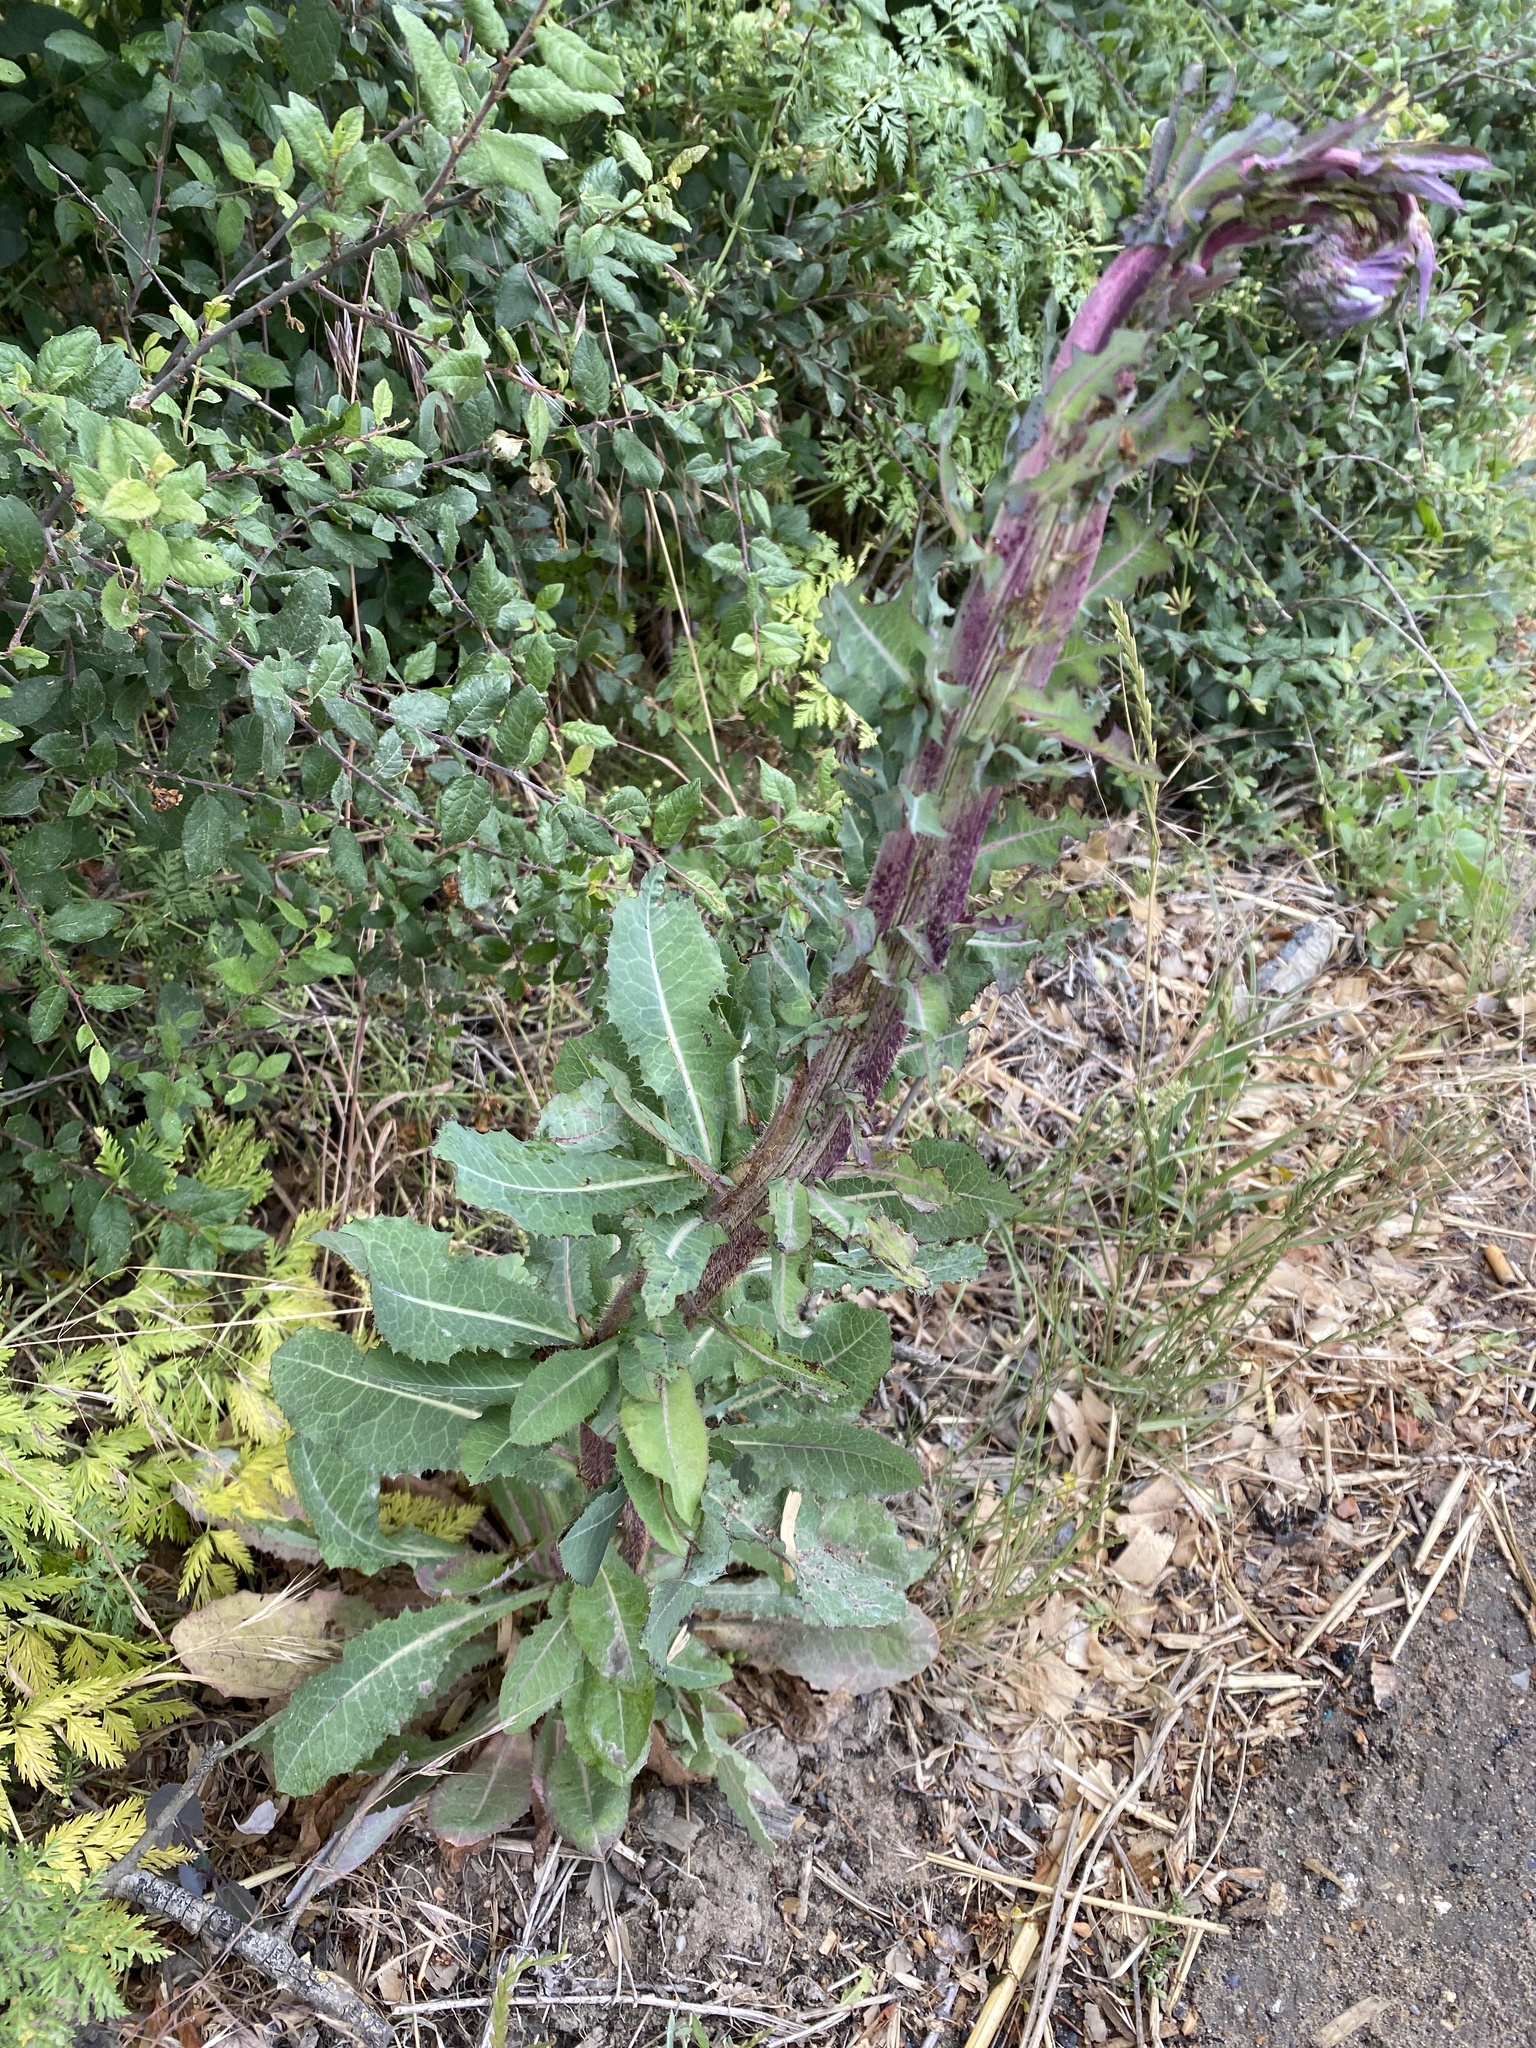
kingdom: Plantae
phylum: Tracheophyta
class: Magnoliopsida
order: Asterales
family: Asteraceae
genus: Lactuca
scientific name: Lactuca serriola
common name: Prickly lettuce
